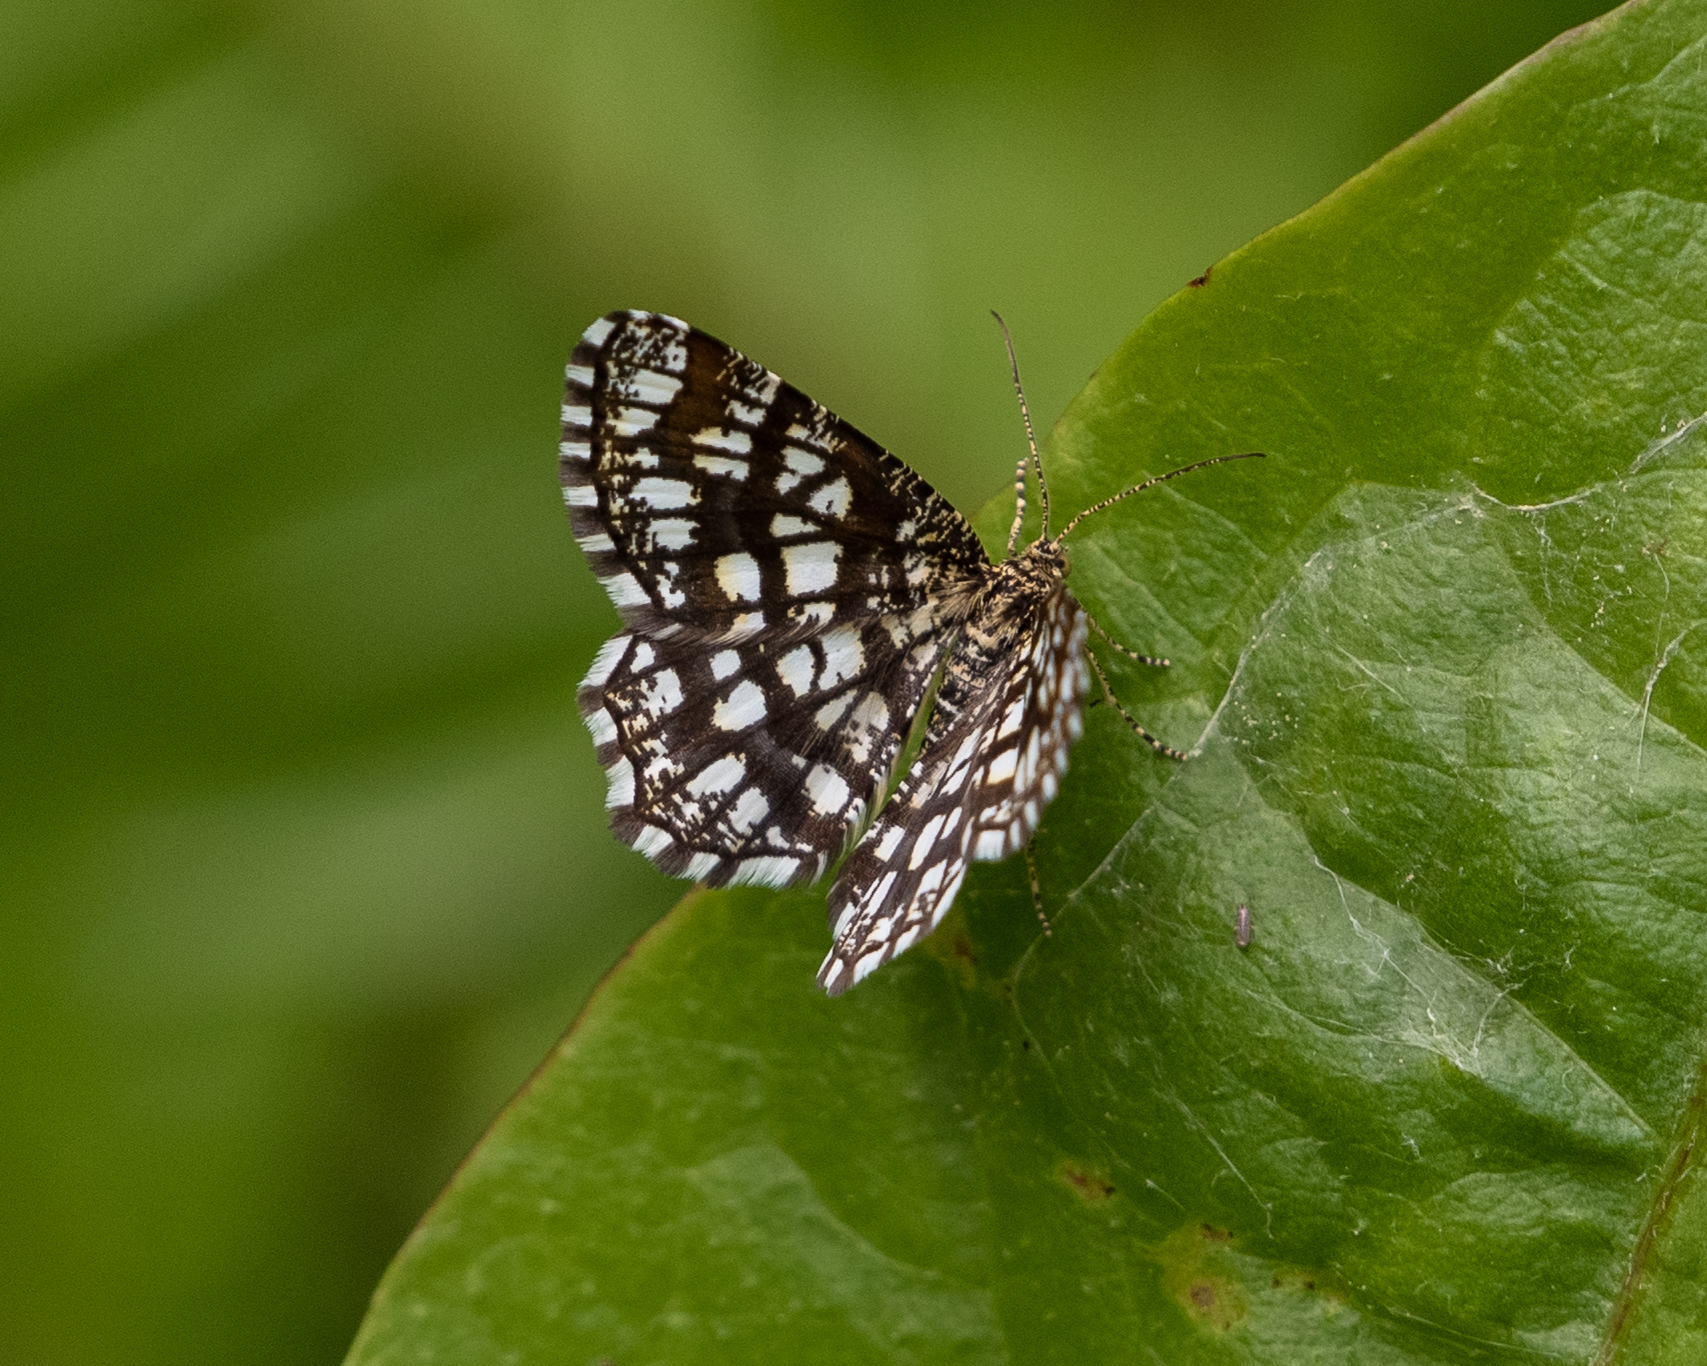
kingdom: Animalia
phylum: Arthropoda
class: Insecta
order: Lepidoptera
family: Geometridae
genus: Chiasmia
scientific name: Chiasmia clathrata
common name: Latticed heath
